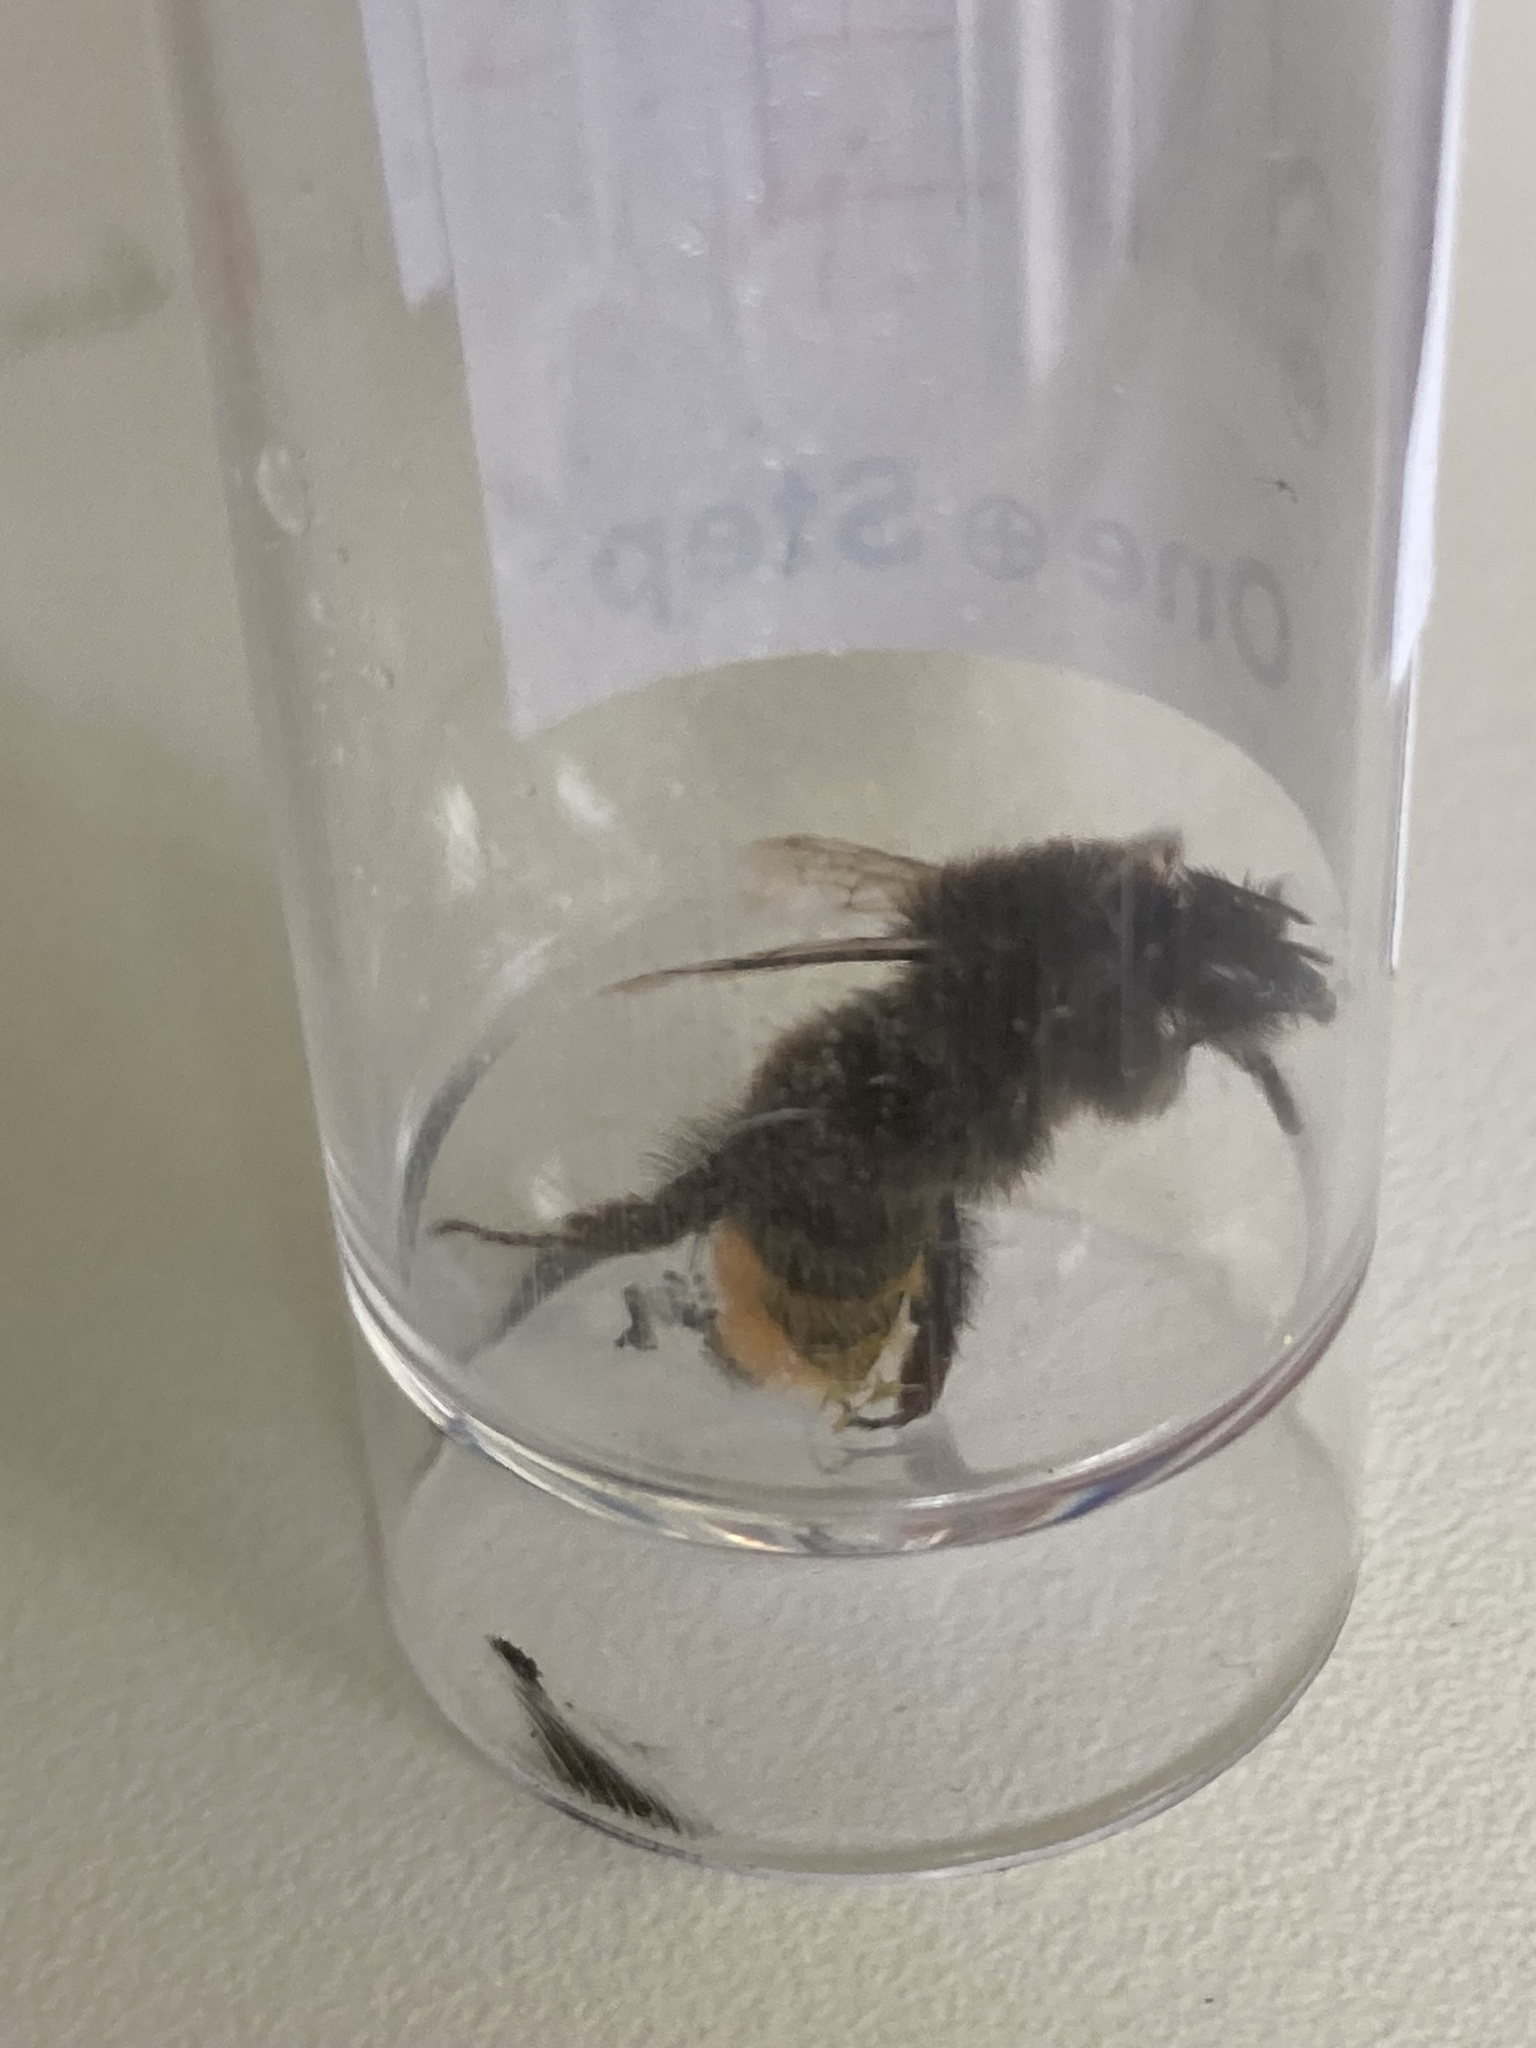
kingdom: Animalia
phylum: Arthropoda
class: Insecta
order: Hymenoptera
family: Apidae
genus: Bombus
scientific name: Bombus lapidarius
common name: Large red-tailed humble-bee
